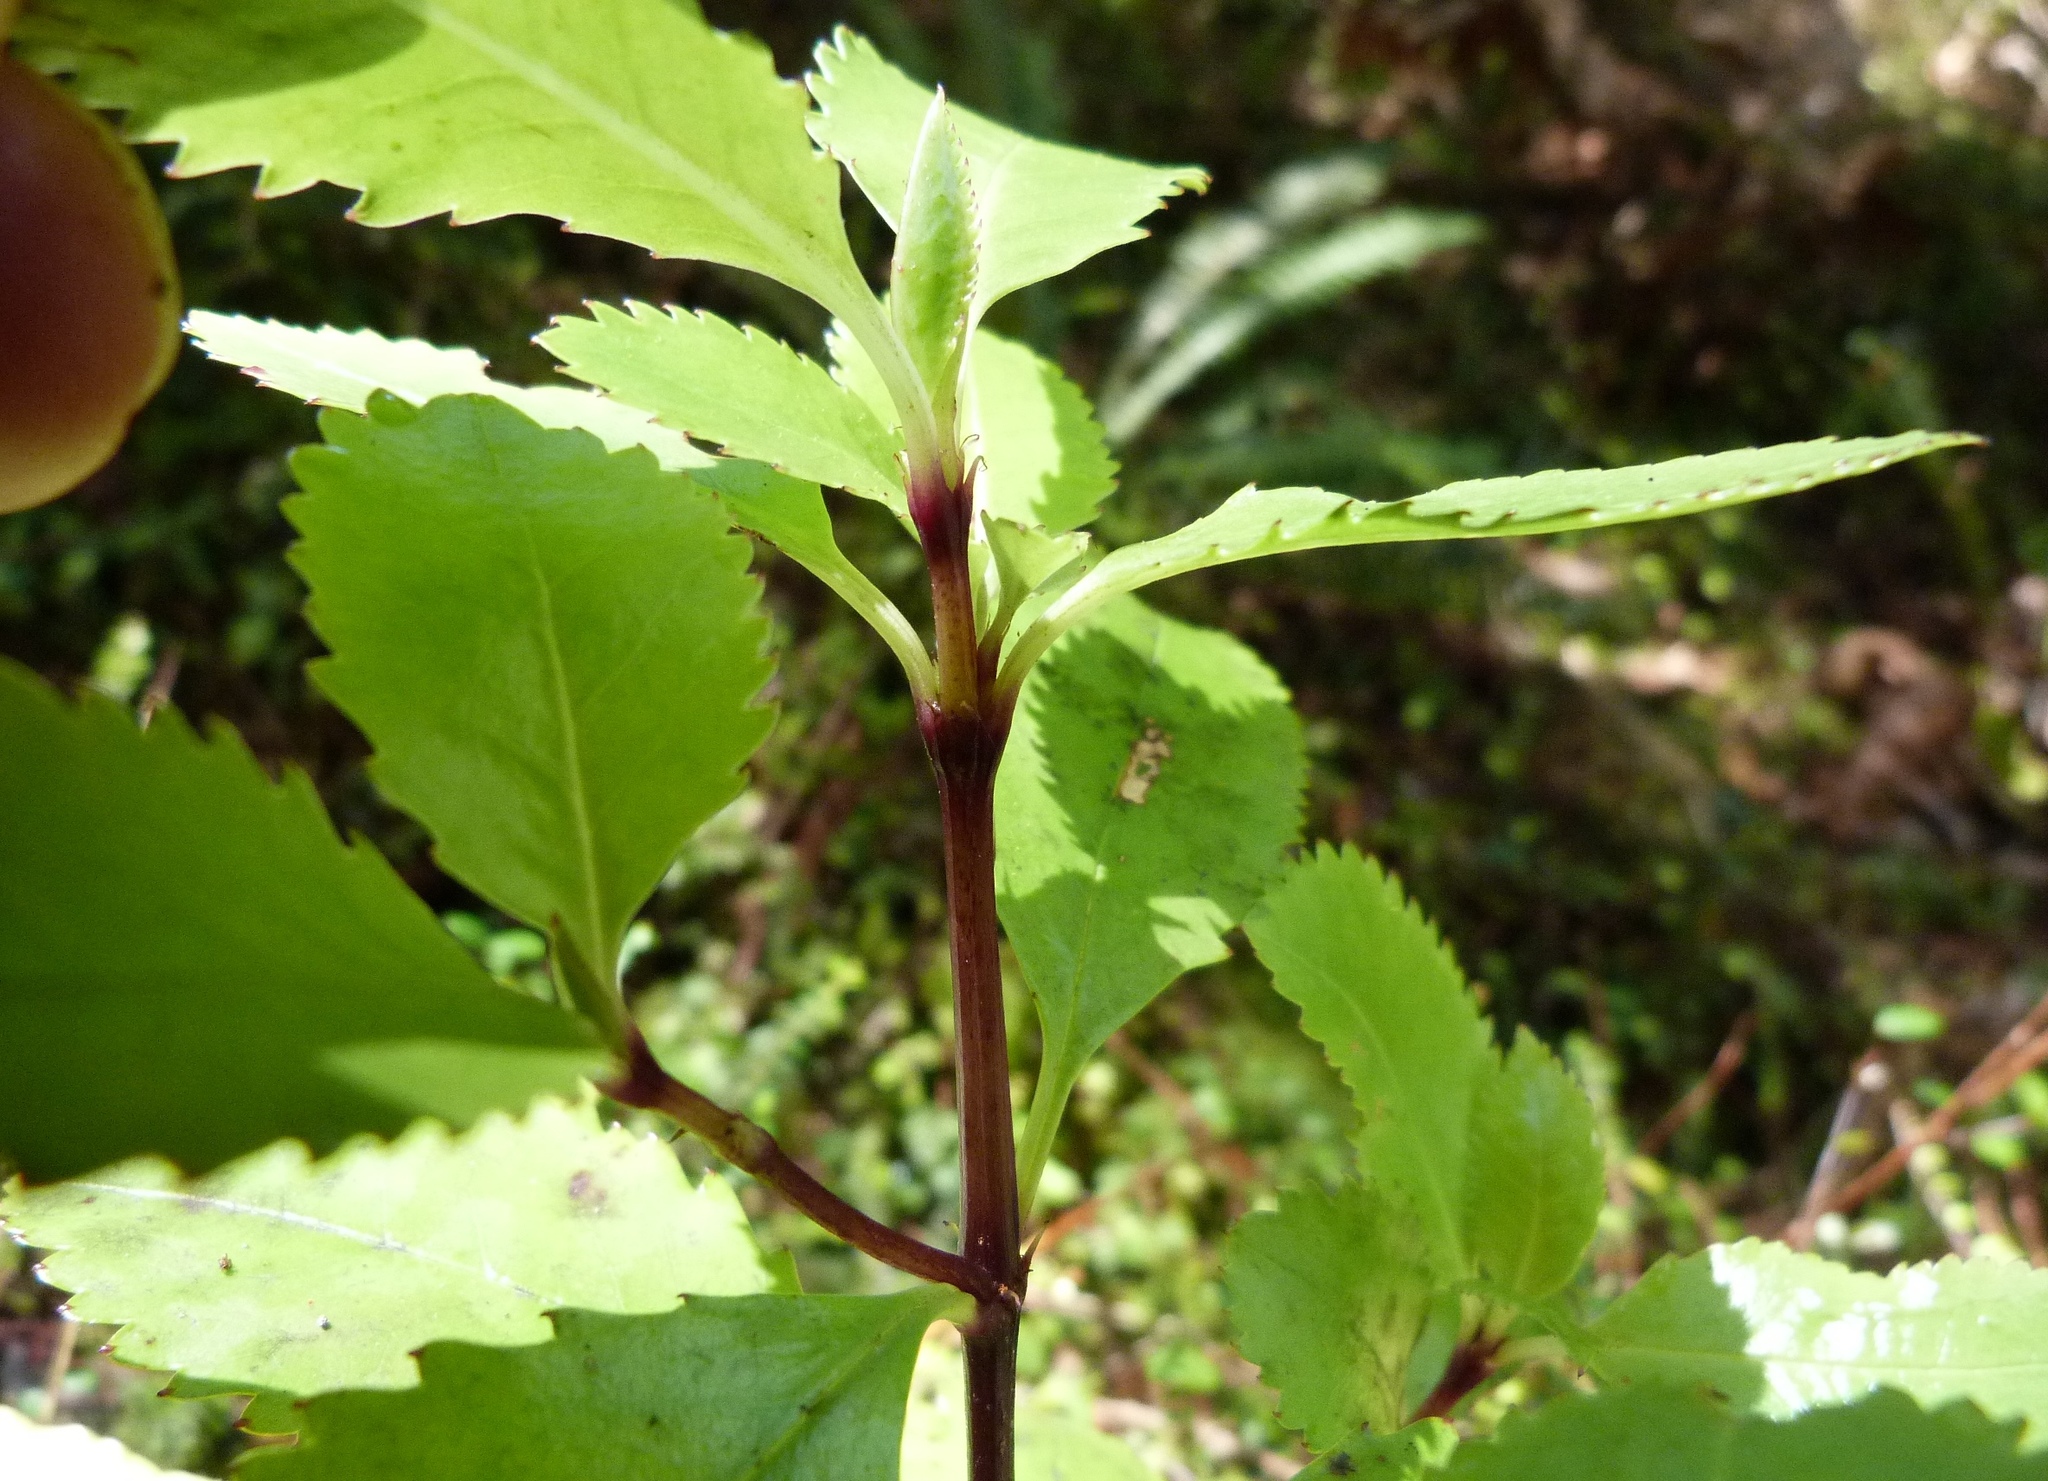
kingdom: Plantae
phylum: Tracheophyta
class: Magnoliopsida
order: Chloranthales
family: Chloranthaceae
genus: Ascarina
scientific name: Ascarina lucida
